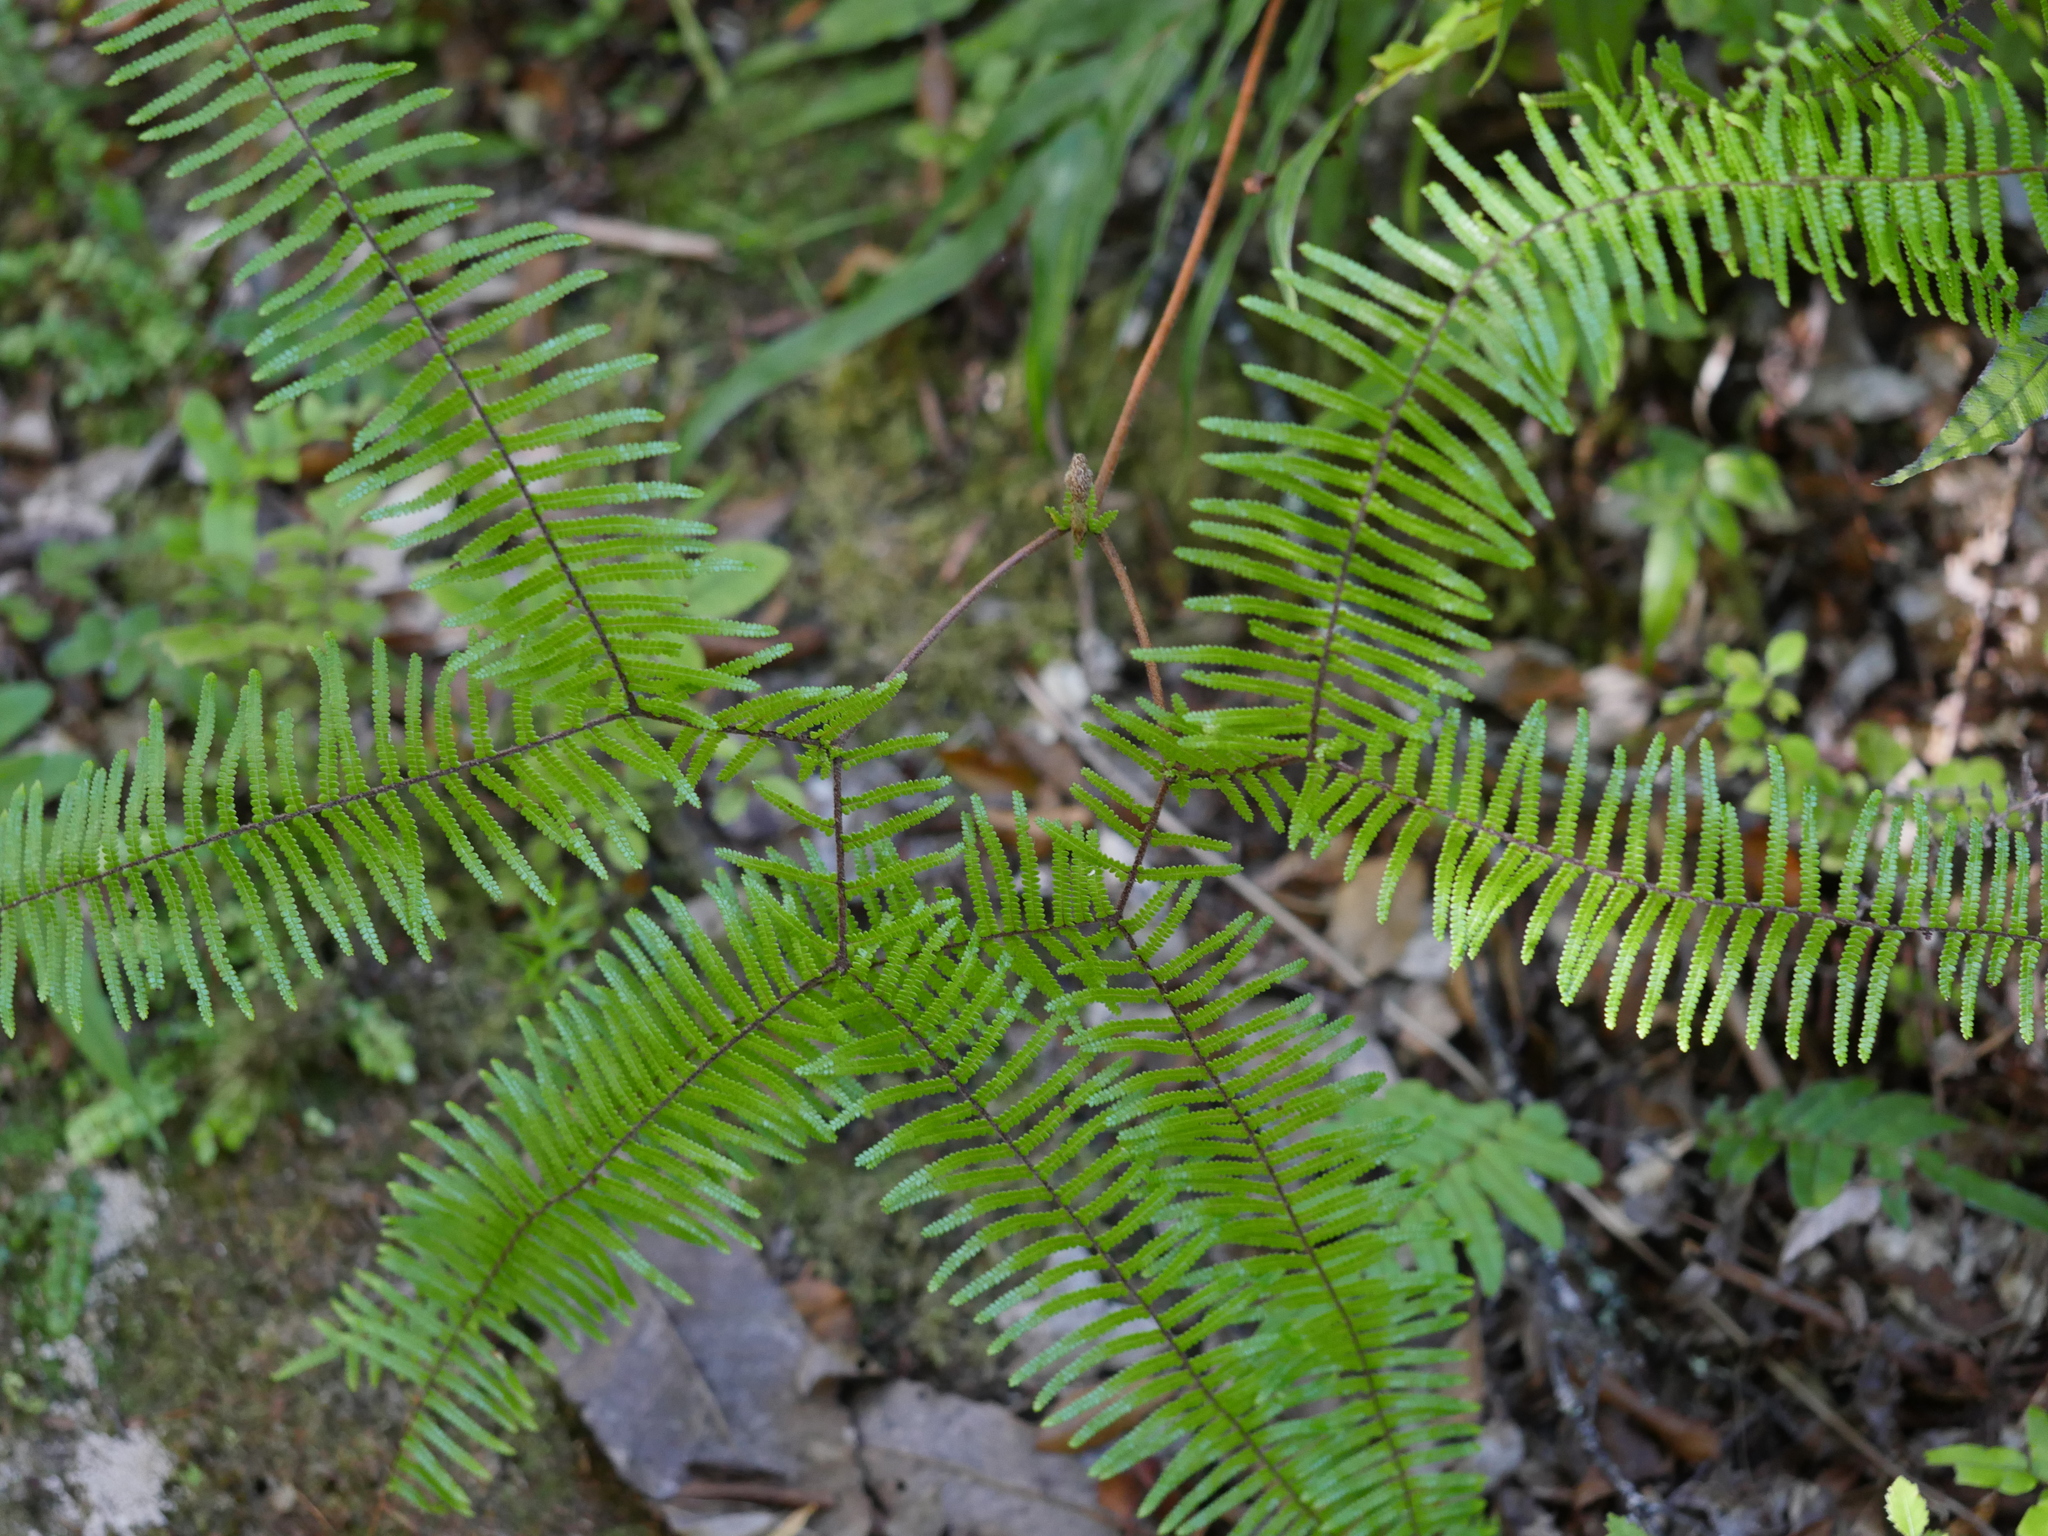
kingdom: Plantae
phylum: Tracheophyta
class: Polypodiopsida
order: Gleicheniales
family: Gleicheniaceae
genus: Gleichenia
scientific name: Gleichenia microphylla
